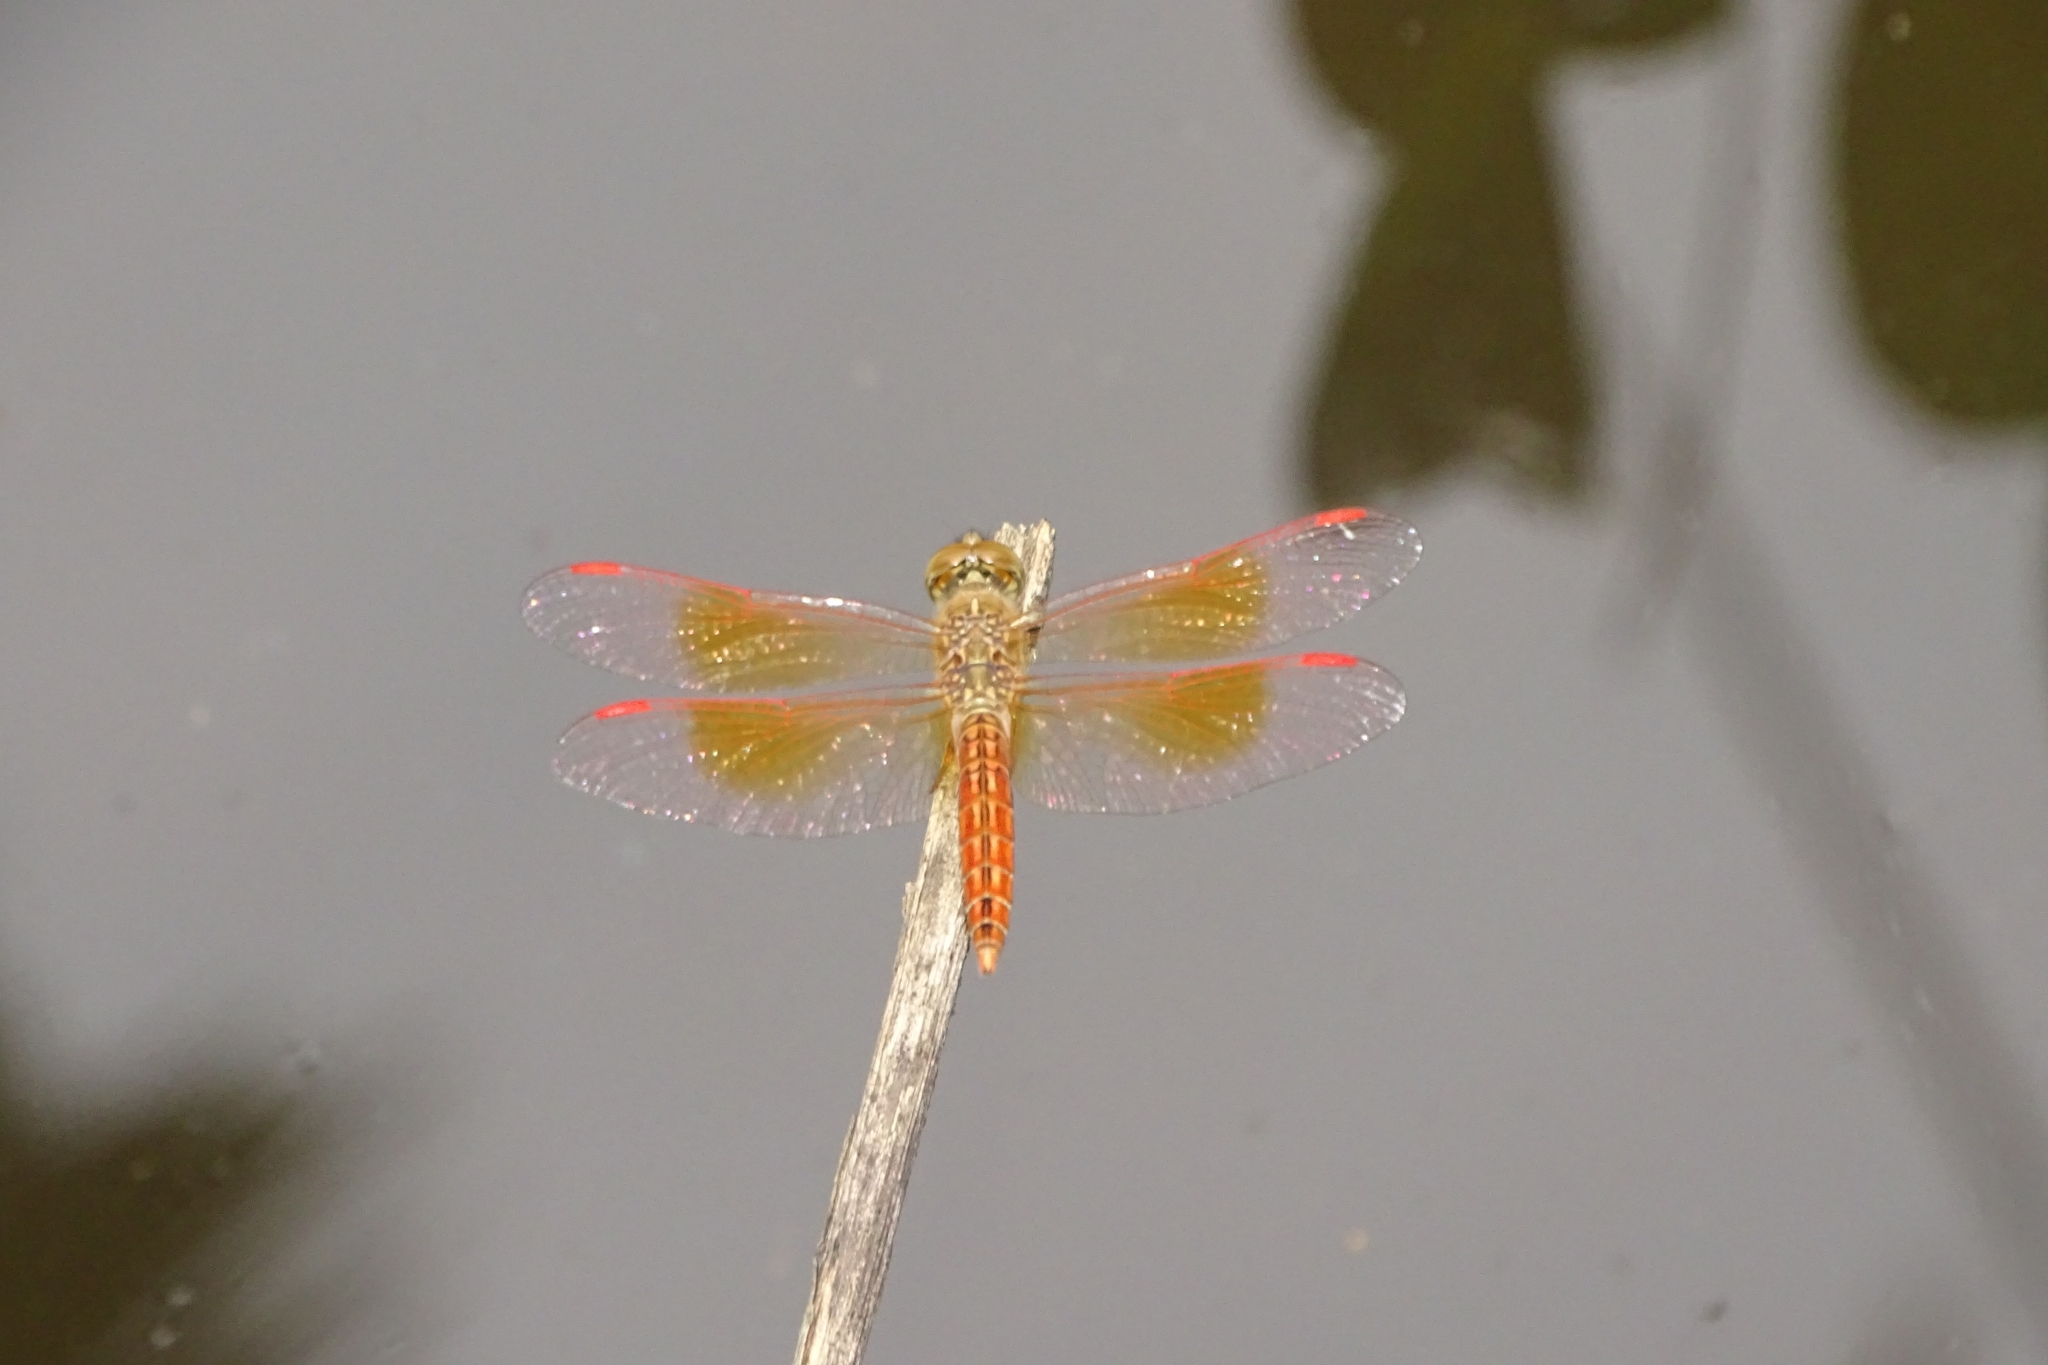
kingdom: Animalia
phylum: Arthropoda
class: Insecta
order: Odonata
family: Libellulidae
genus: Brachythemis
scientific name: Brachythemis contaminata
